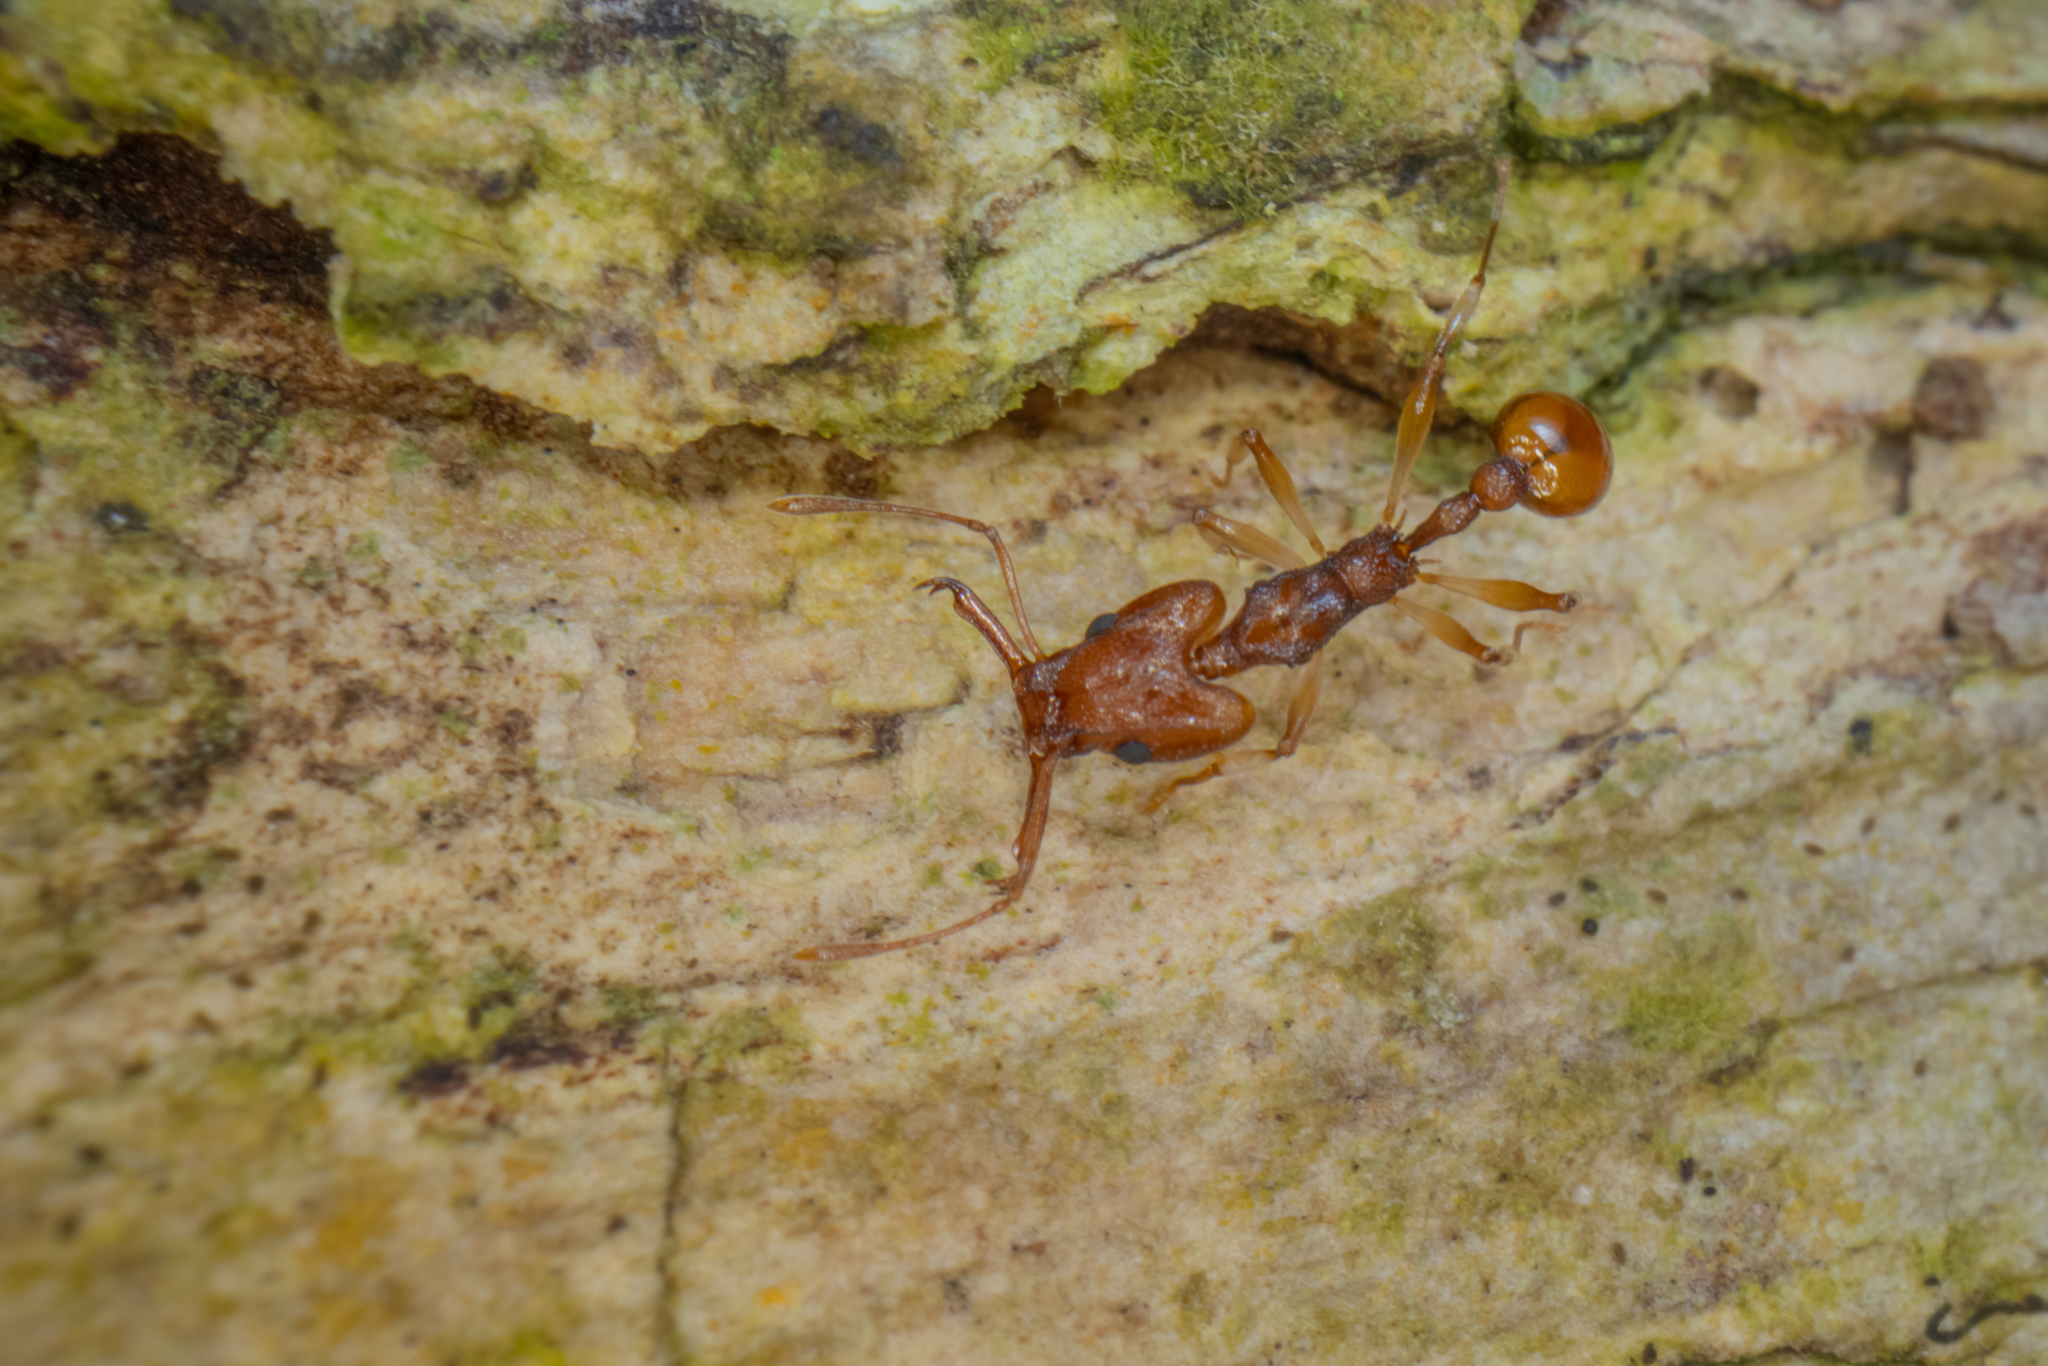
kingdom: Animalia
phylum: Arthropoda
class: Insecta
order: Hymenoptera
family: Formicidae
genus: Orectognathus
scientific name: Orectognathus antennatus
